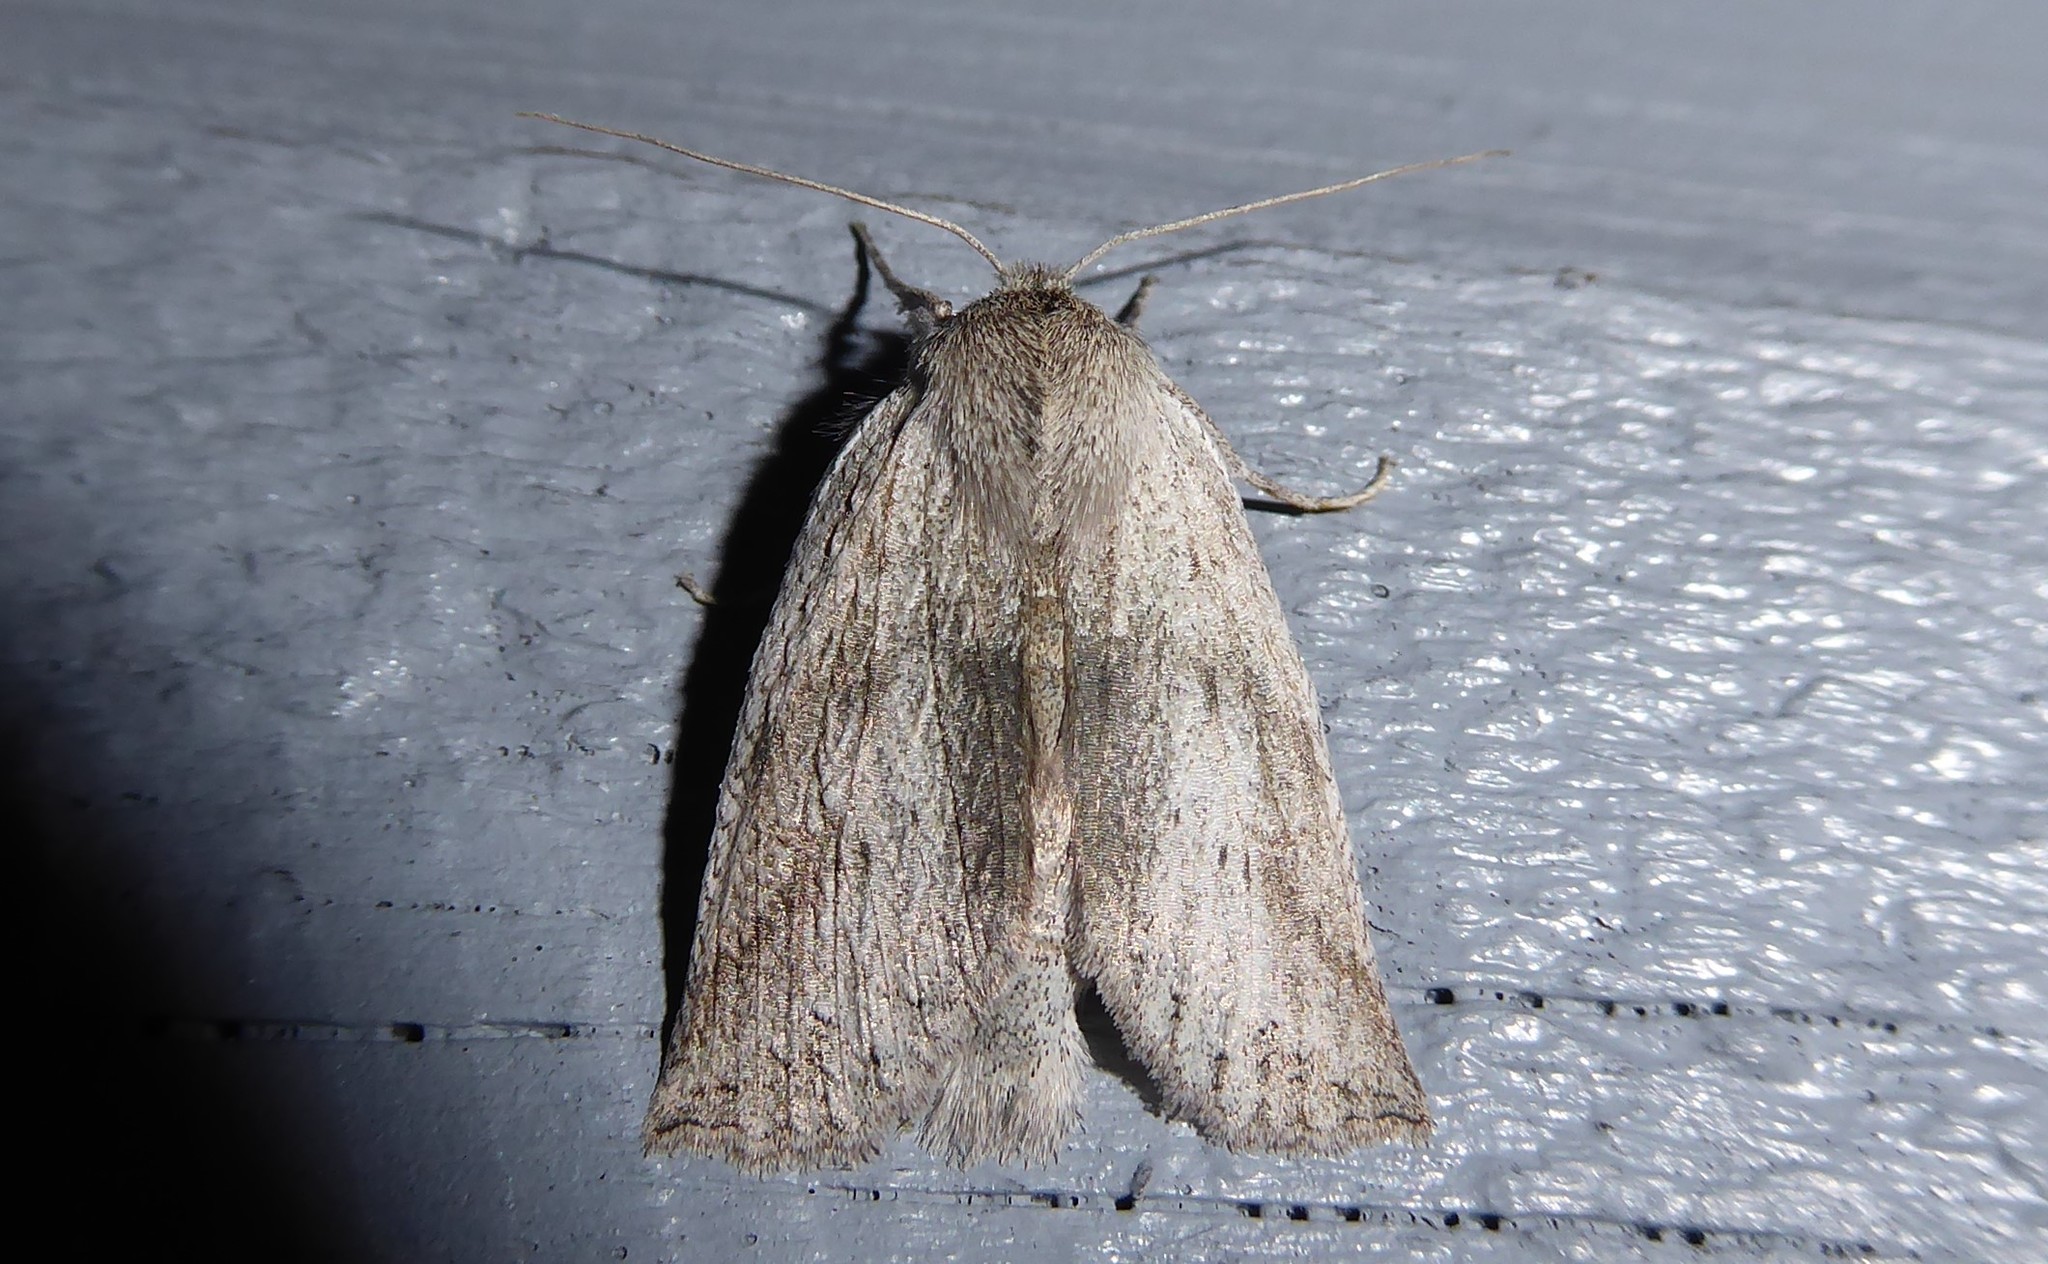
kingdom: Animalia
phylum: Arthropoda
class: Insecta
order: Lepidoptera
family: Geometridae
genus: Declana
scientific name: Declana leptomera
